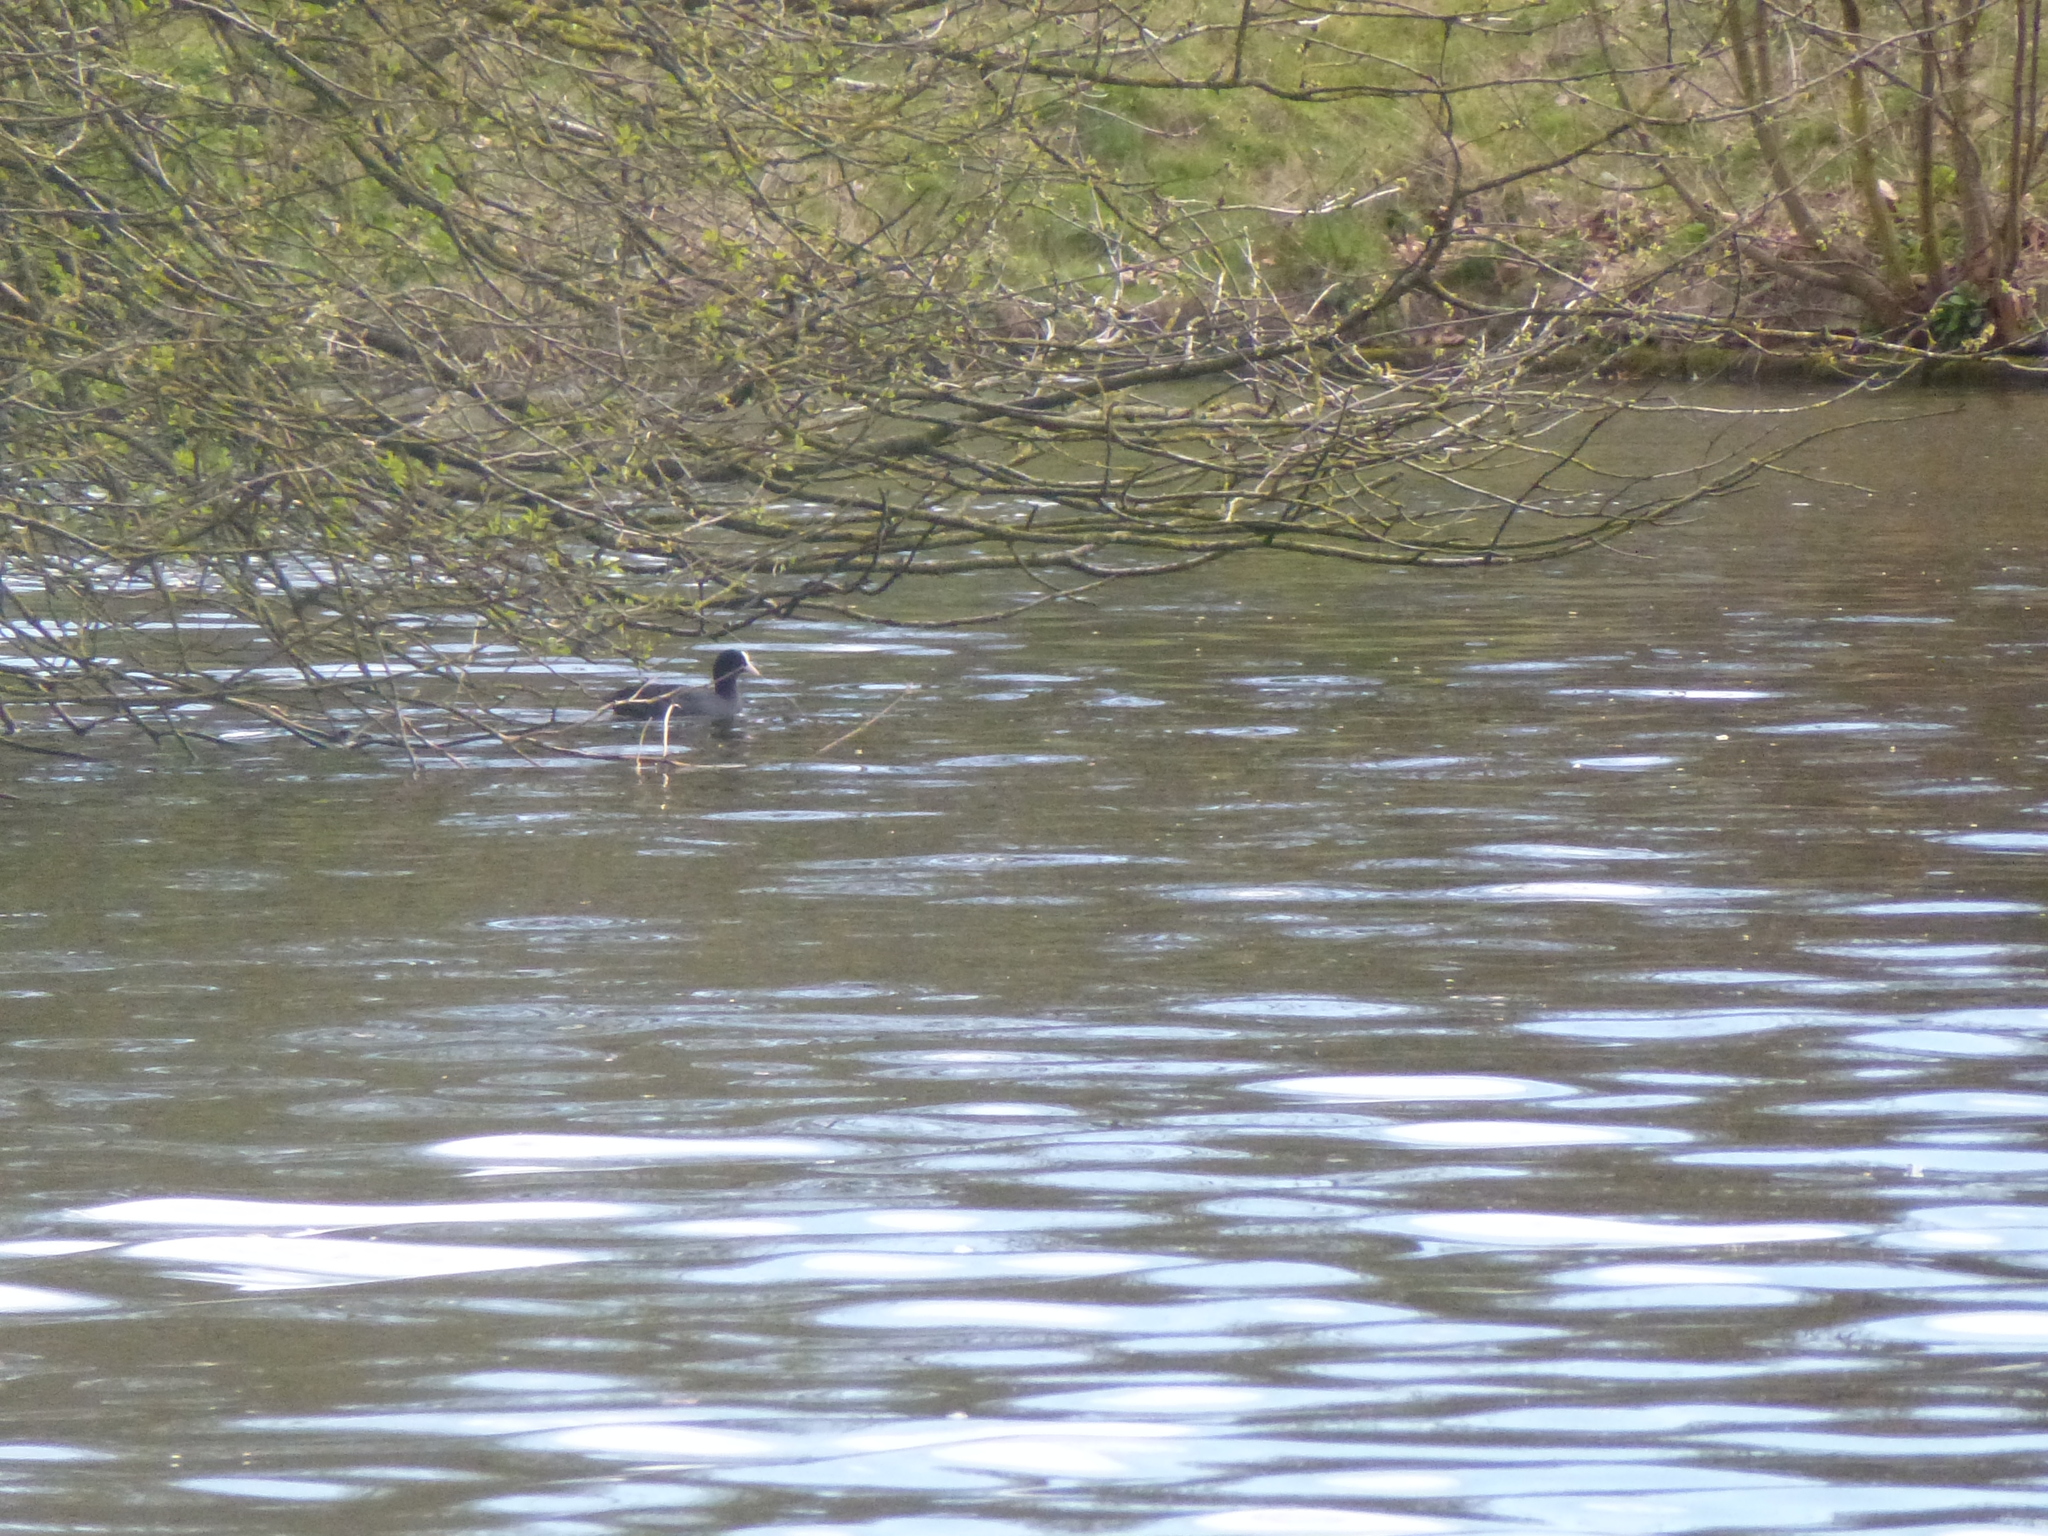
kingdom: Animalia
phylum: Chordata
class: Aves
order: Gruiformes
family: Rallidae
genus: Fulica
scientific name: Fulica atra
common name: Eurasian coot
